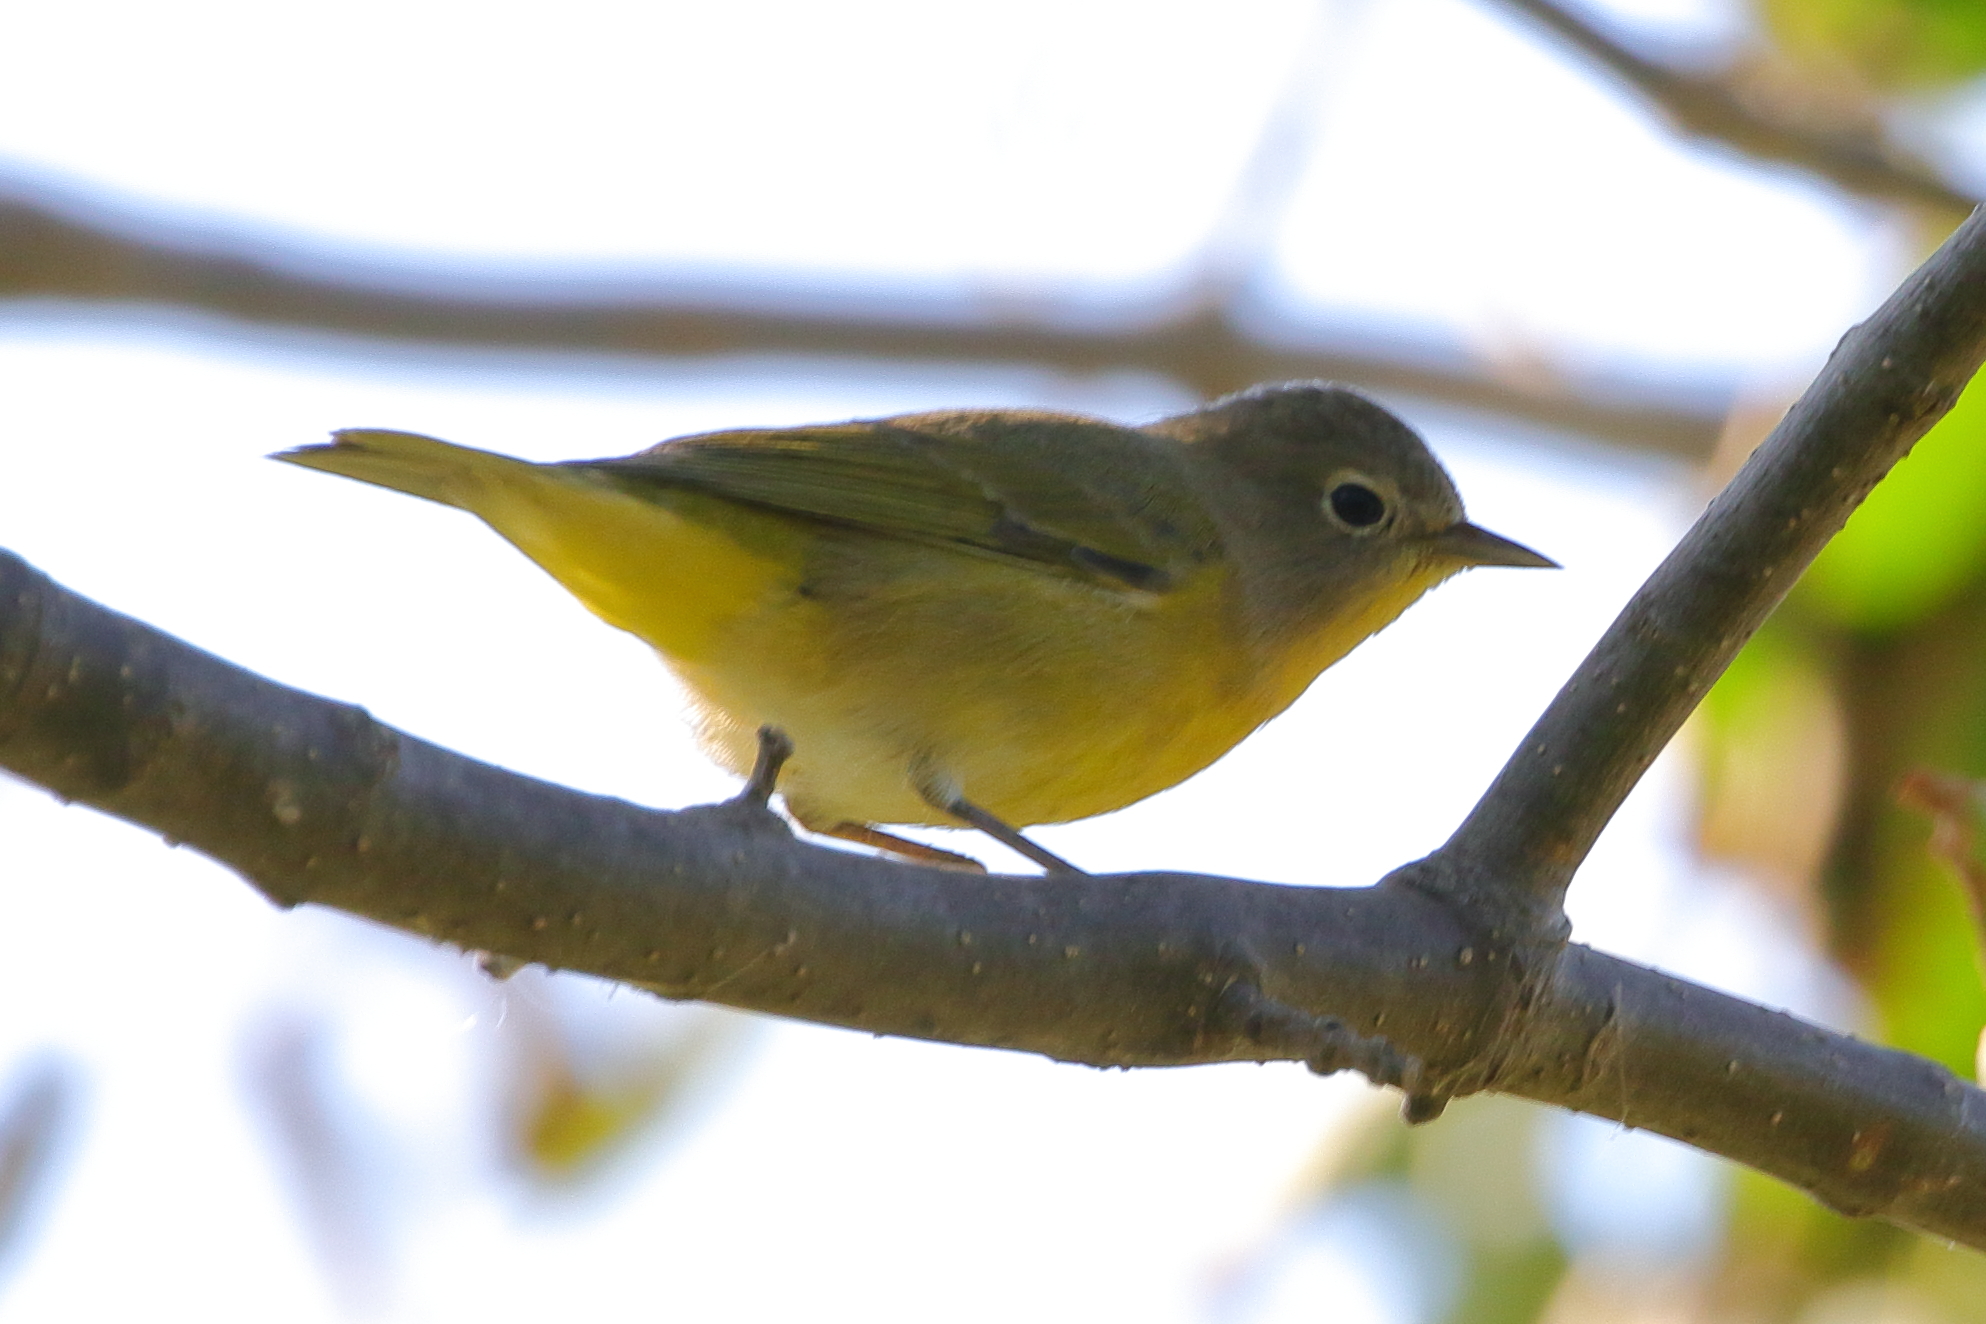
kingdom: Animalia
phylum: Chordata
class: Aves
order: Passeriformes
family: Parulidae
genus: Leiothlypis
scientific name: Leiothlypis ruficapilla
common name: Nashville warbler
